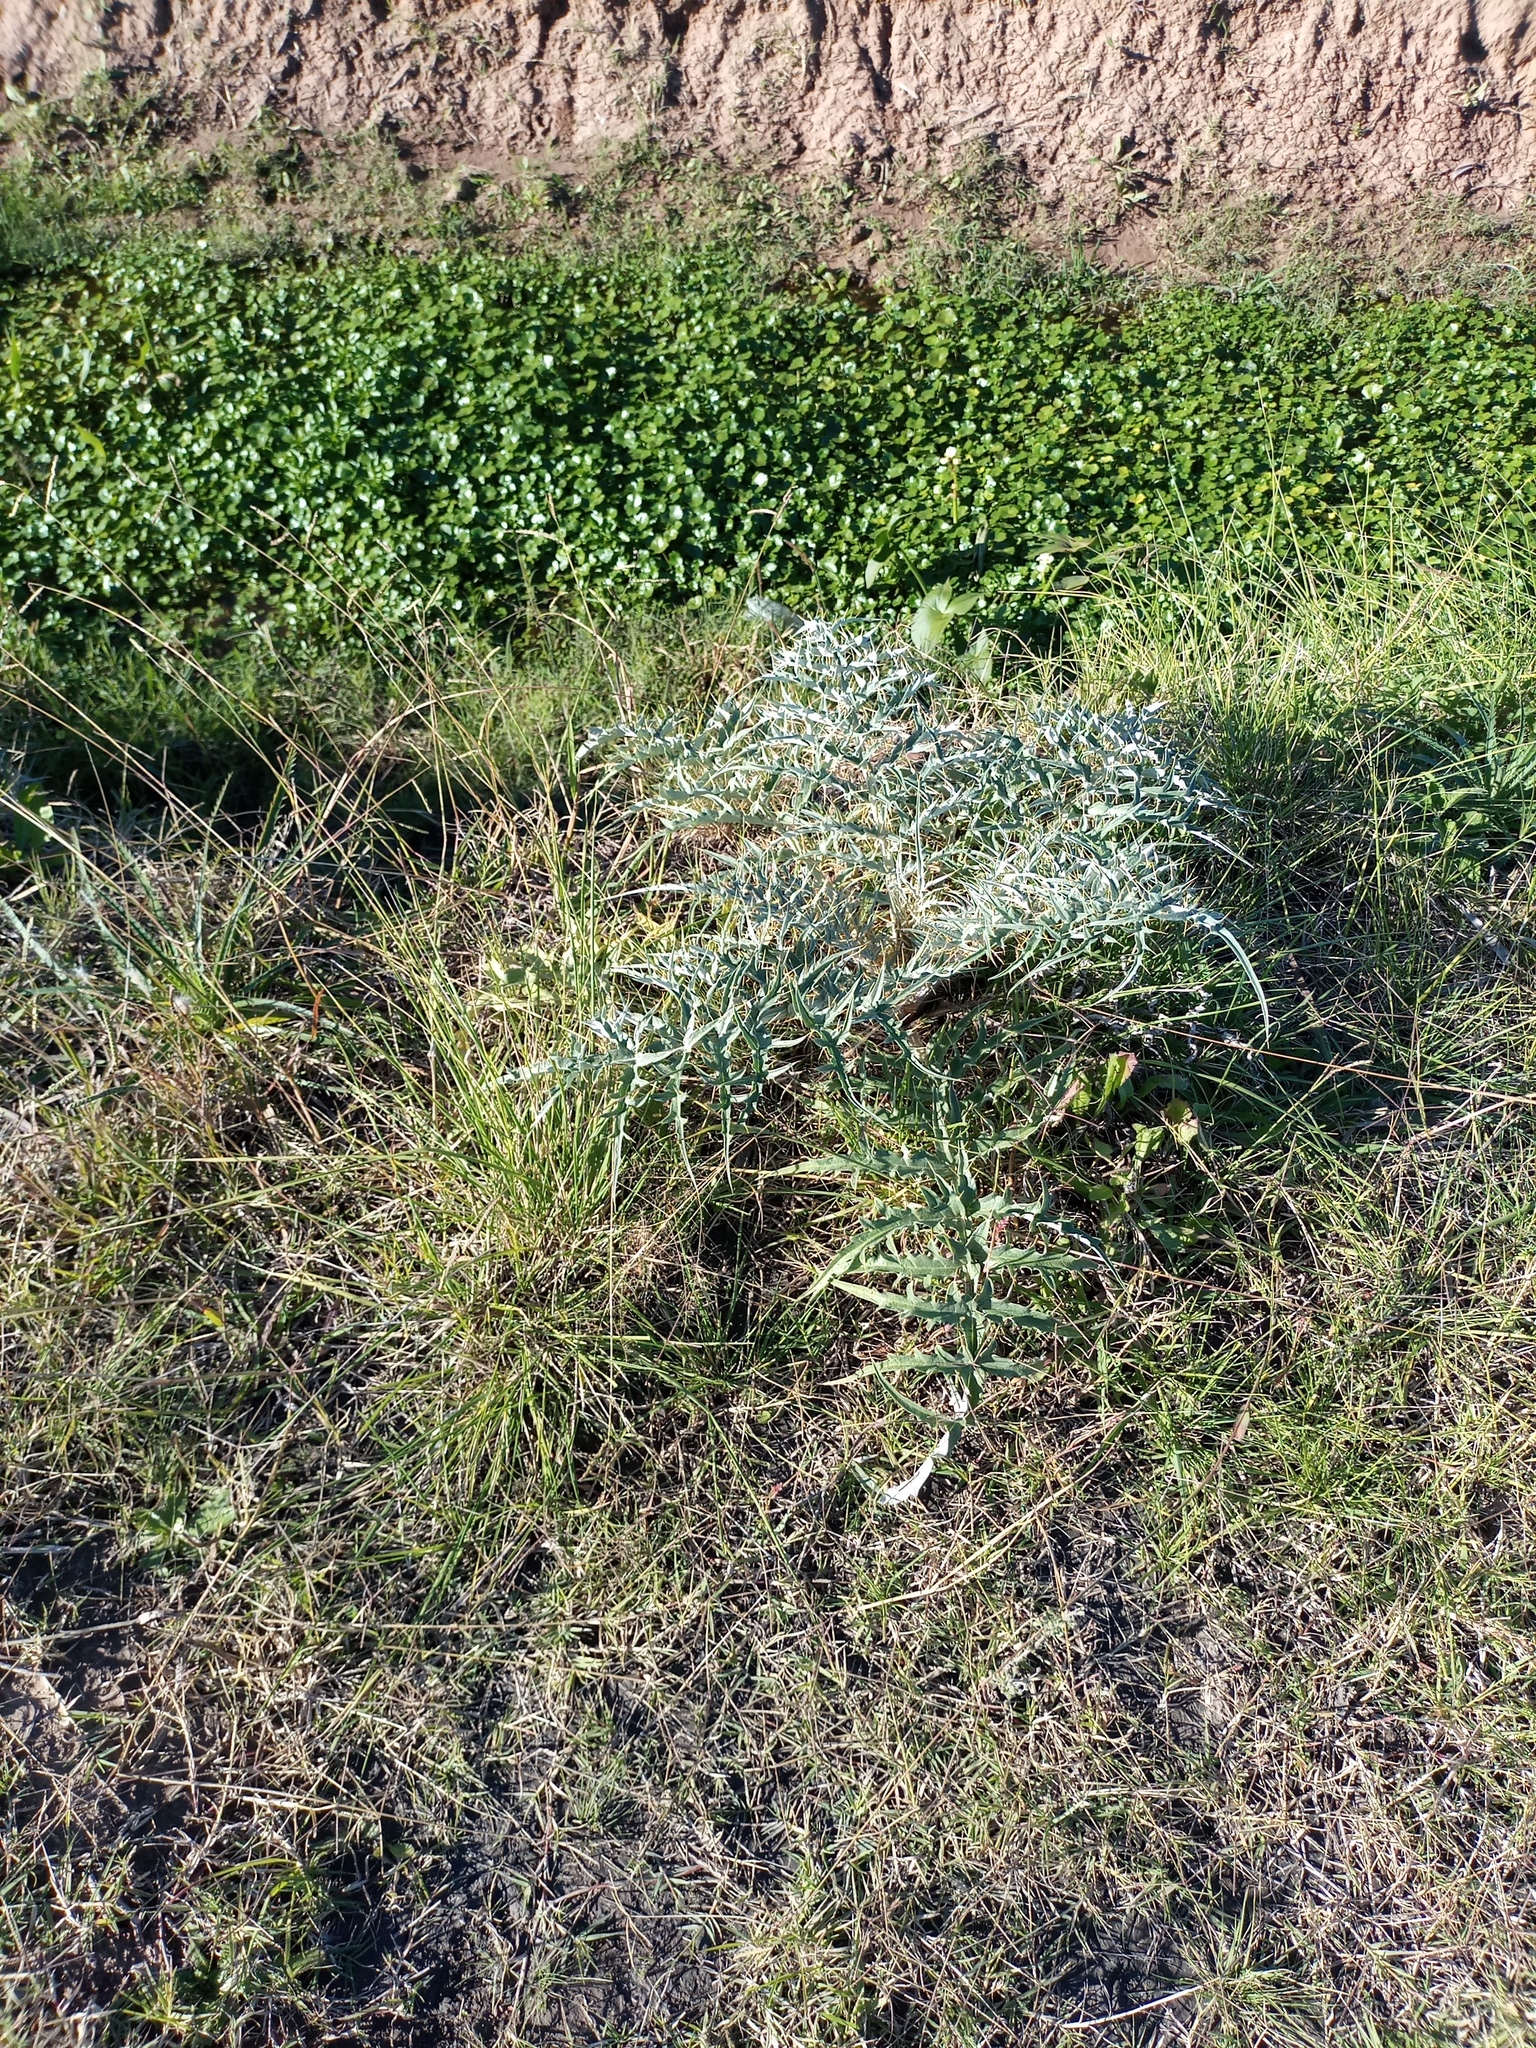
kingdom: Plantae
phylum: Tracheophyta
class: Magnoliopsida
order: Asterales
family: Asteraceae
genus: Cynara
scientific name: Cynara cardunculus
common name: Globe artichoke
